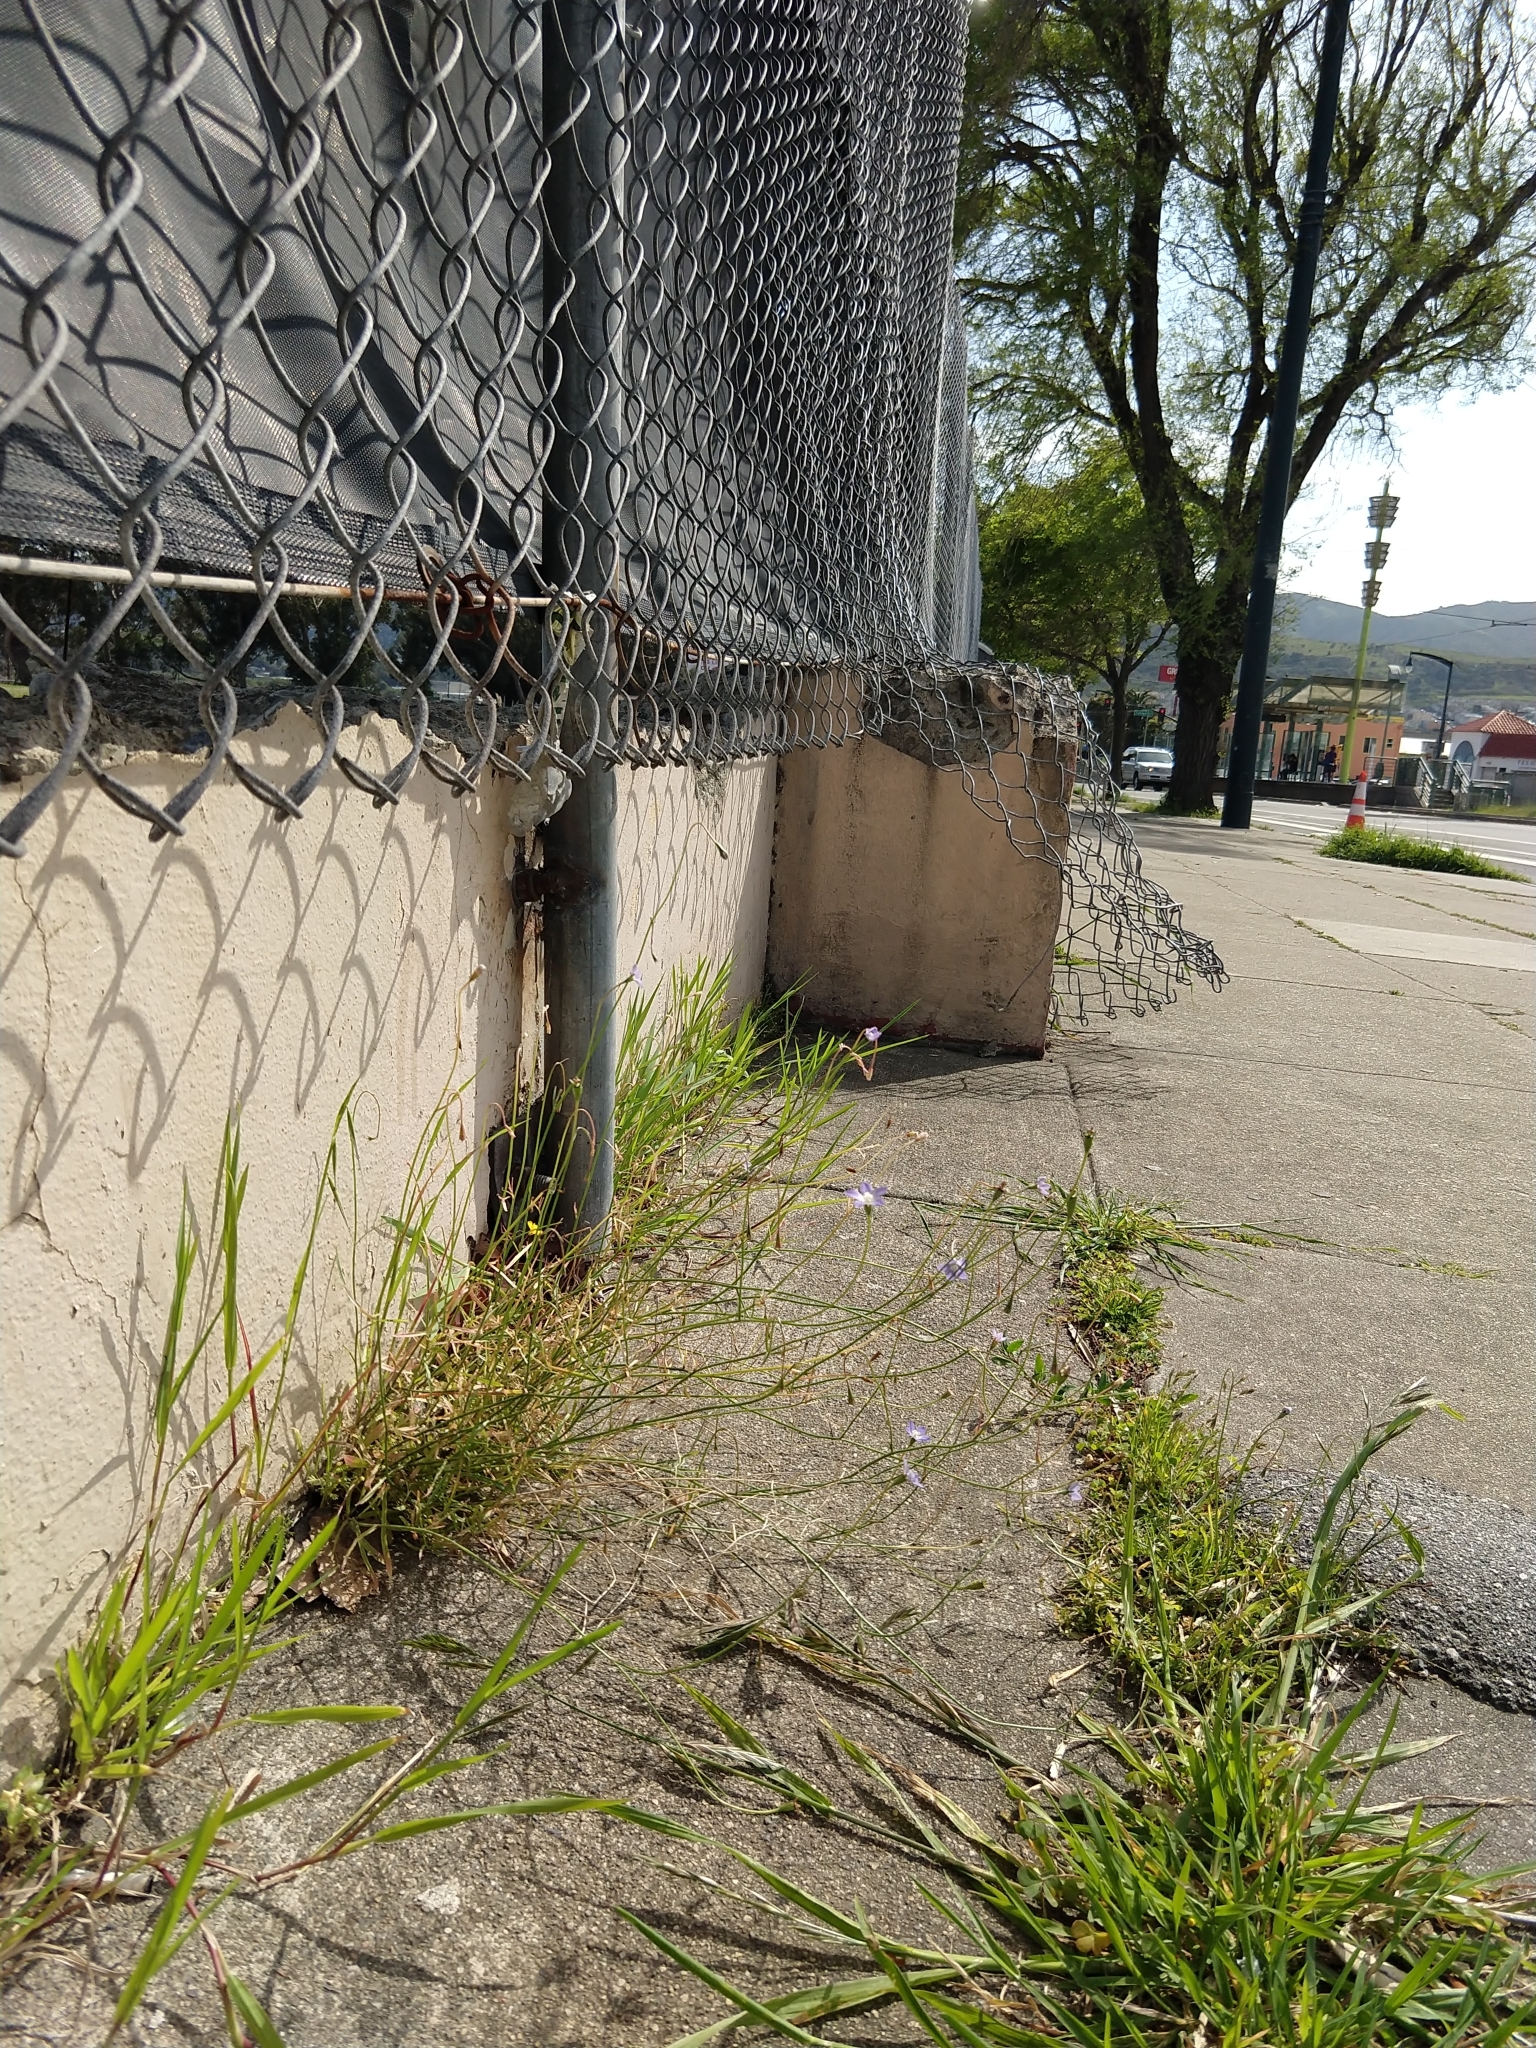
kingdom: Plantae
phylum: Tracheophyta
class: Magnoliopsida
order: Asterales
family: Campanulaceae
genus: Wahlenbergia
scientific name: Wahlenbergia marginata
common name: Southern rockbell
